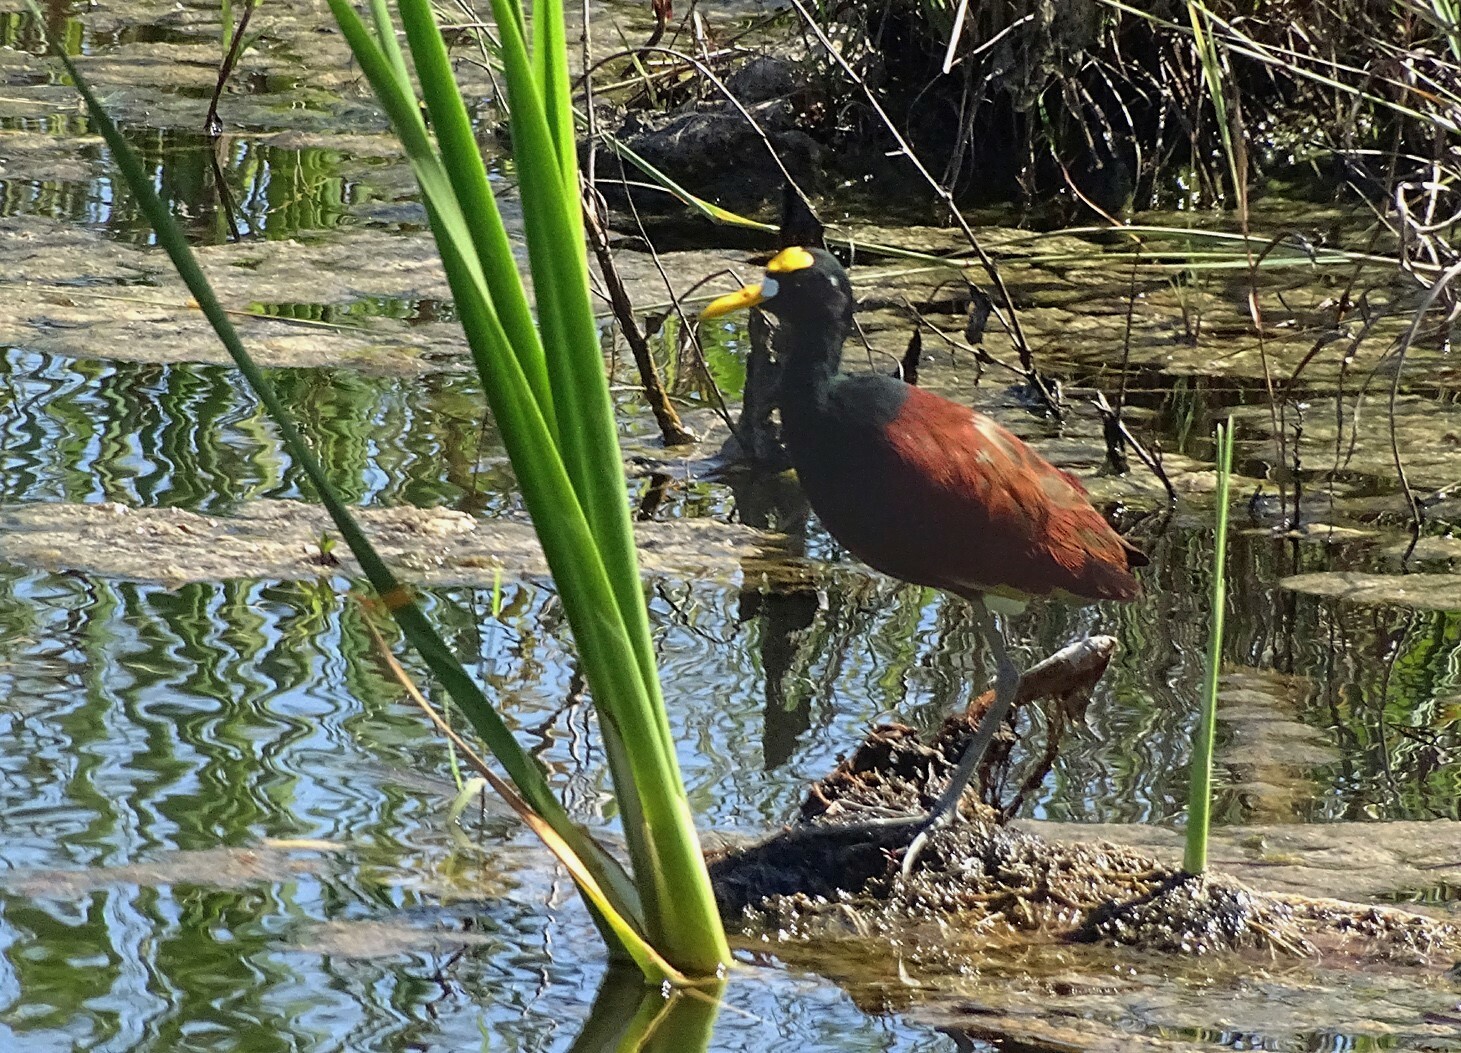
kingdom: Animalia
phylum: Chordata
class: Aves
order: Charadriiformes
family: Jacanidae
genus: Jacana
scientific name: Jacana spinosa
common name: Northern jacana
